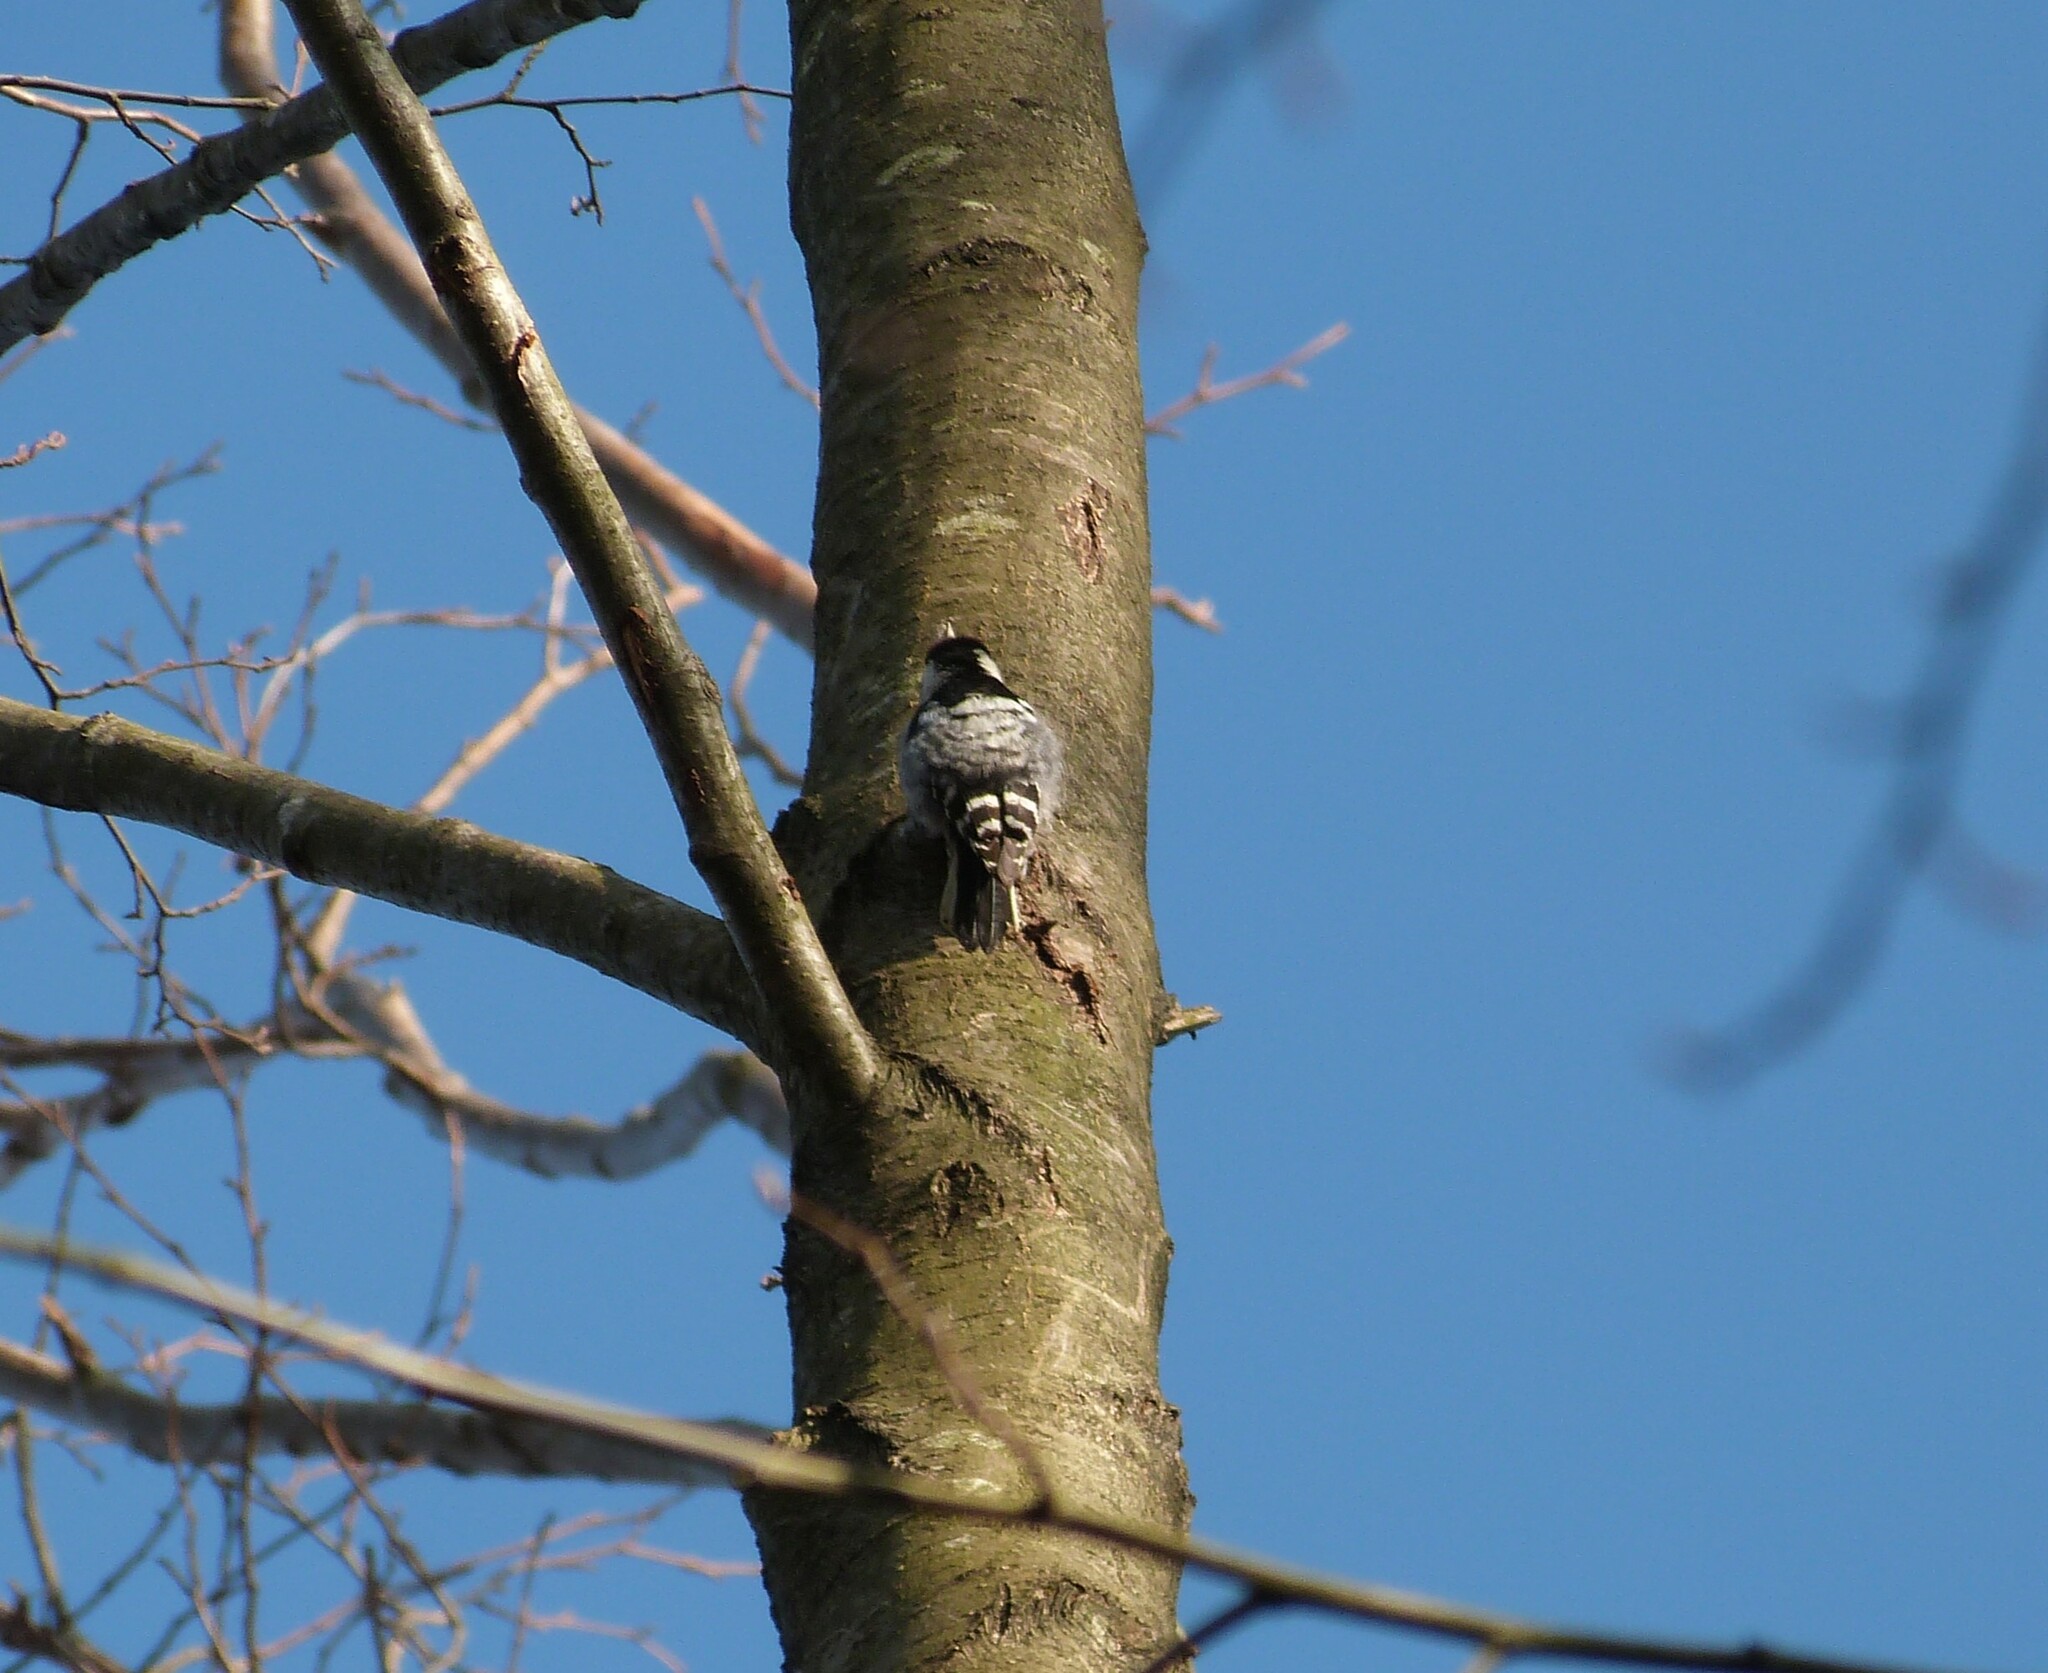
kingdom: Animalia
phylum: Chordata
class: Aves
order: Piciformes
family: Picidae
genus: Dryobates
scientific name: Dryobates minor
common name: Lesser spotted woodpecker
